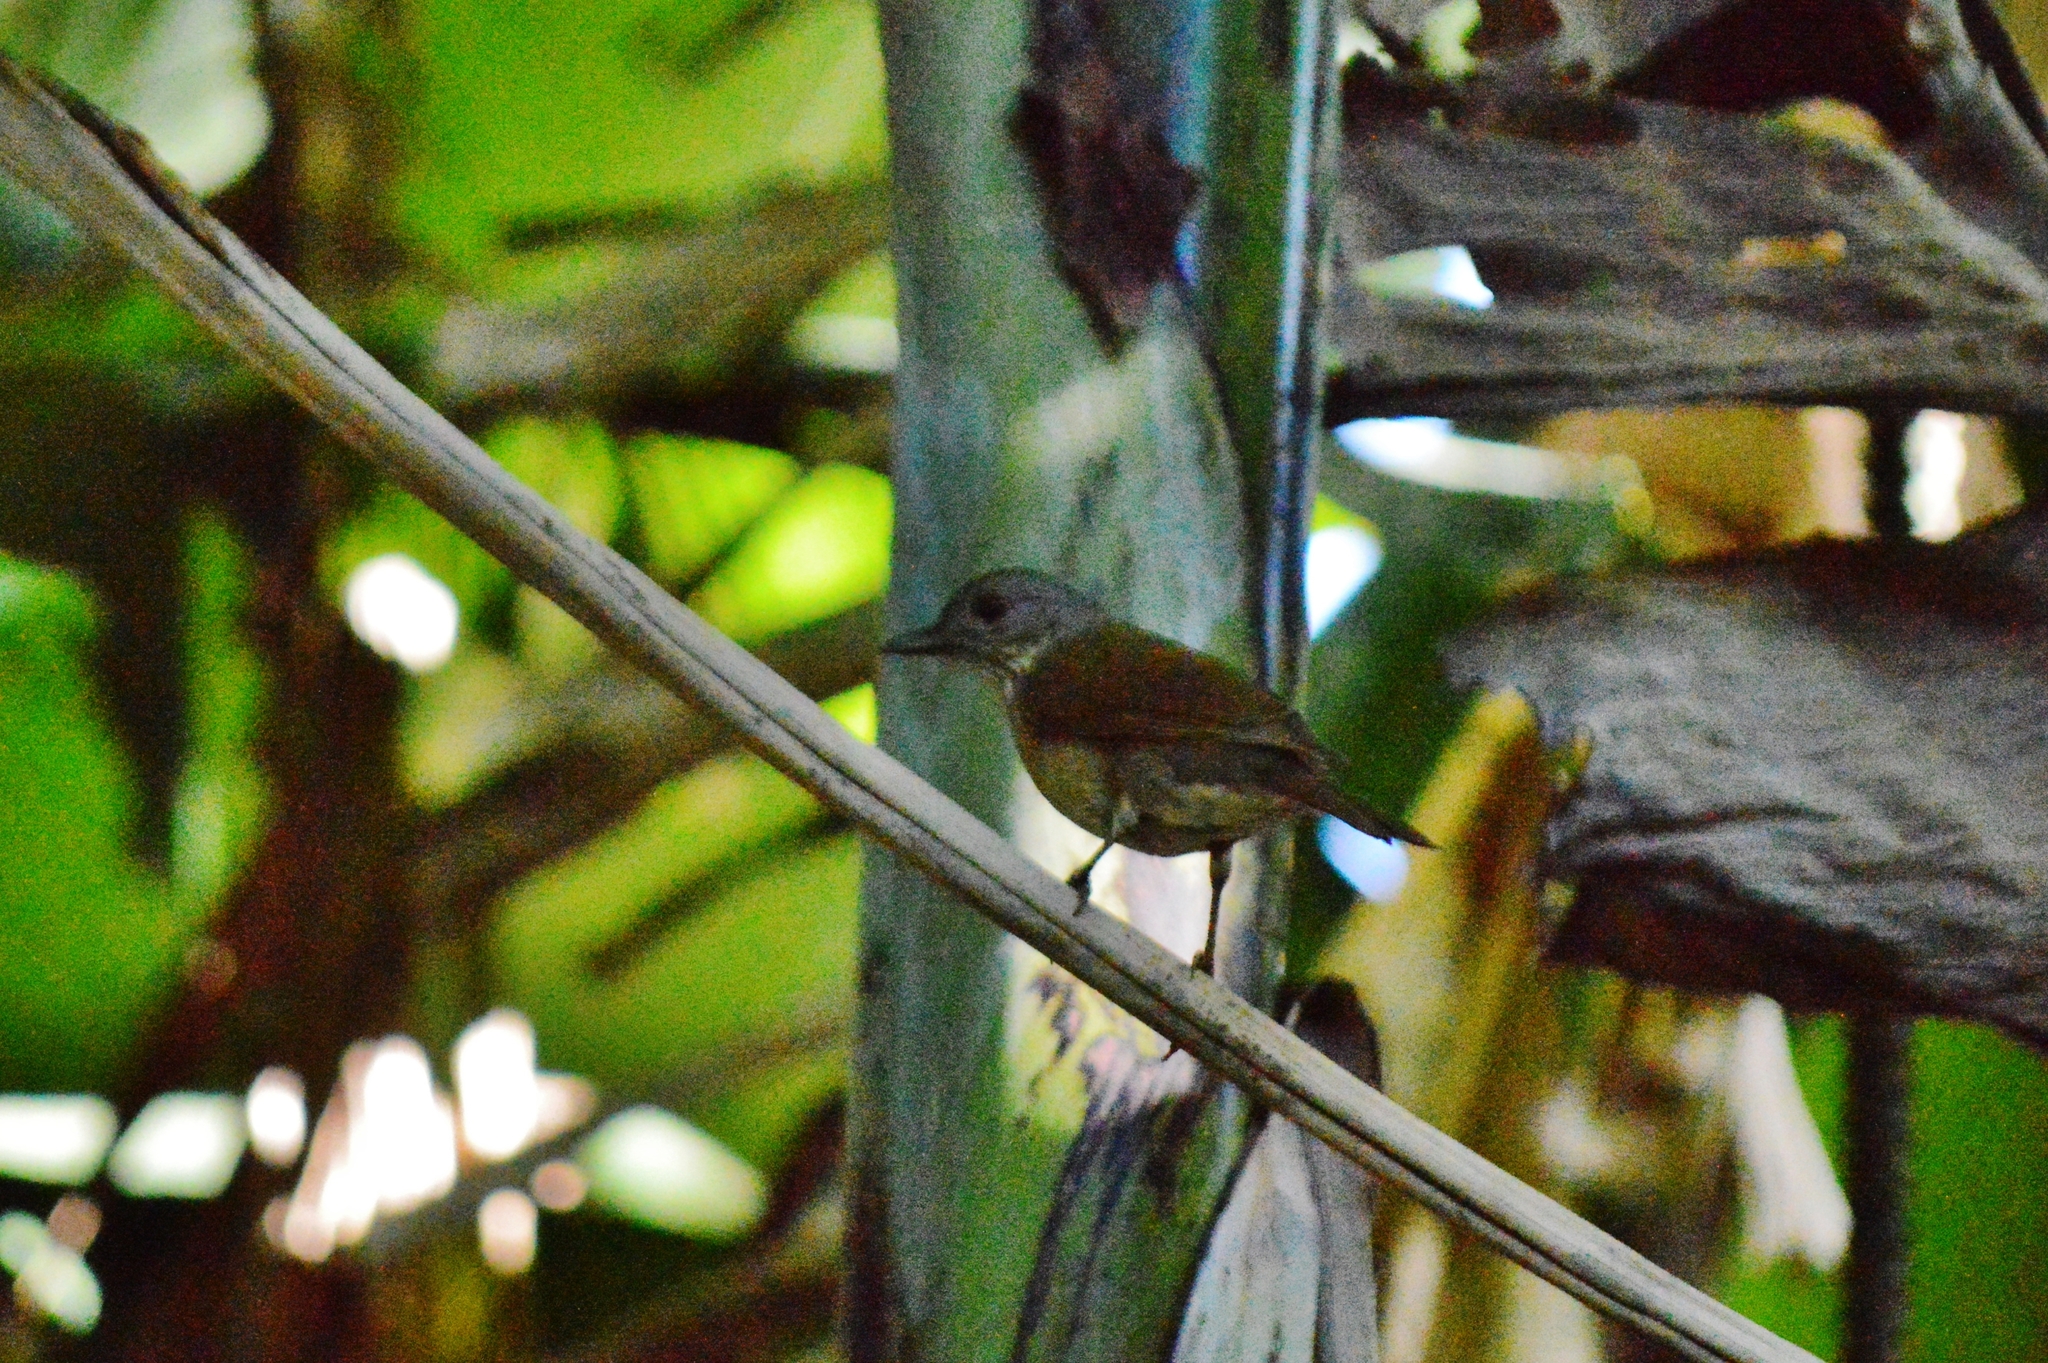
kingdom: Animalia
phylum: Chordata
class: Aves
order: Passeriformes
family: Turdidae
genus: Turdus
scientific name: Turdus leucomelas
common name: Pale-breasted thrush
